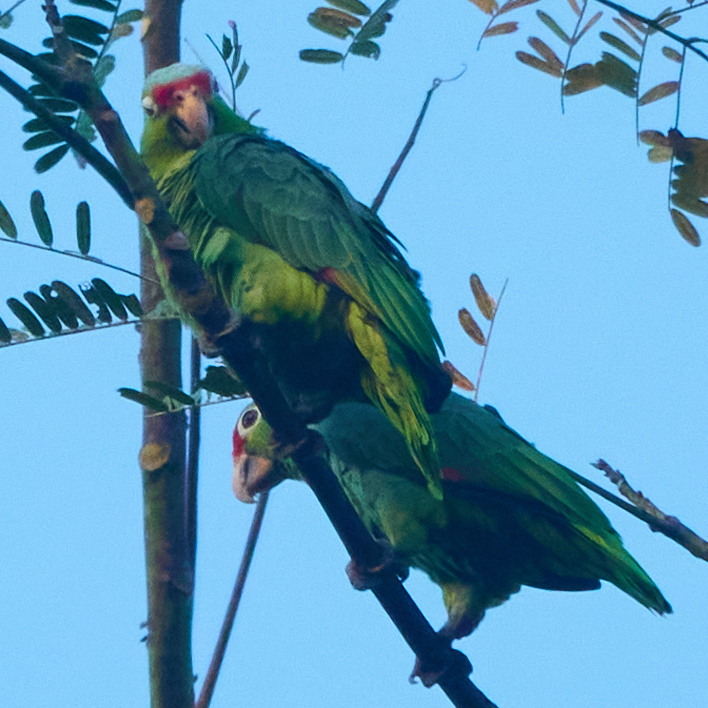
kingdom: Animalia
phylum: Chordata
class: Aves
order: Psittaciformes
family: Psittacidae
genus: Amazona
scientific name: Amazona autumnalis
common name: Red-lored amazon
